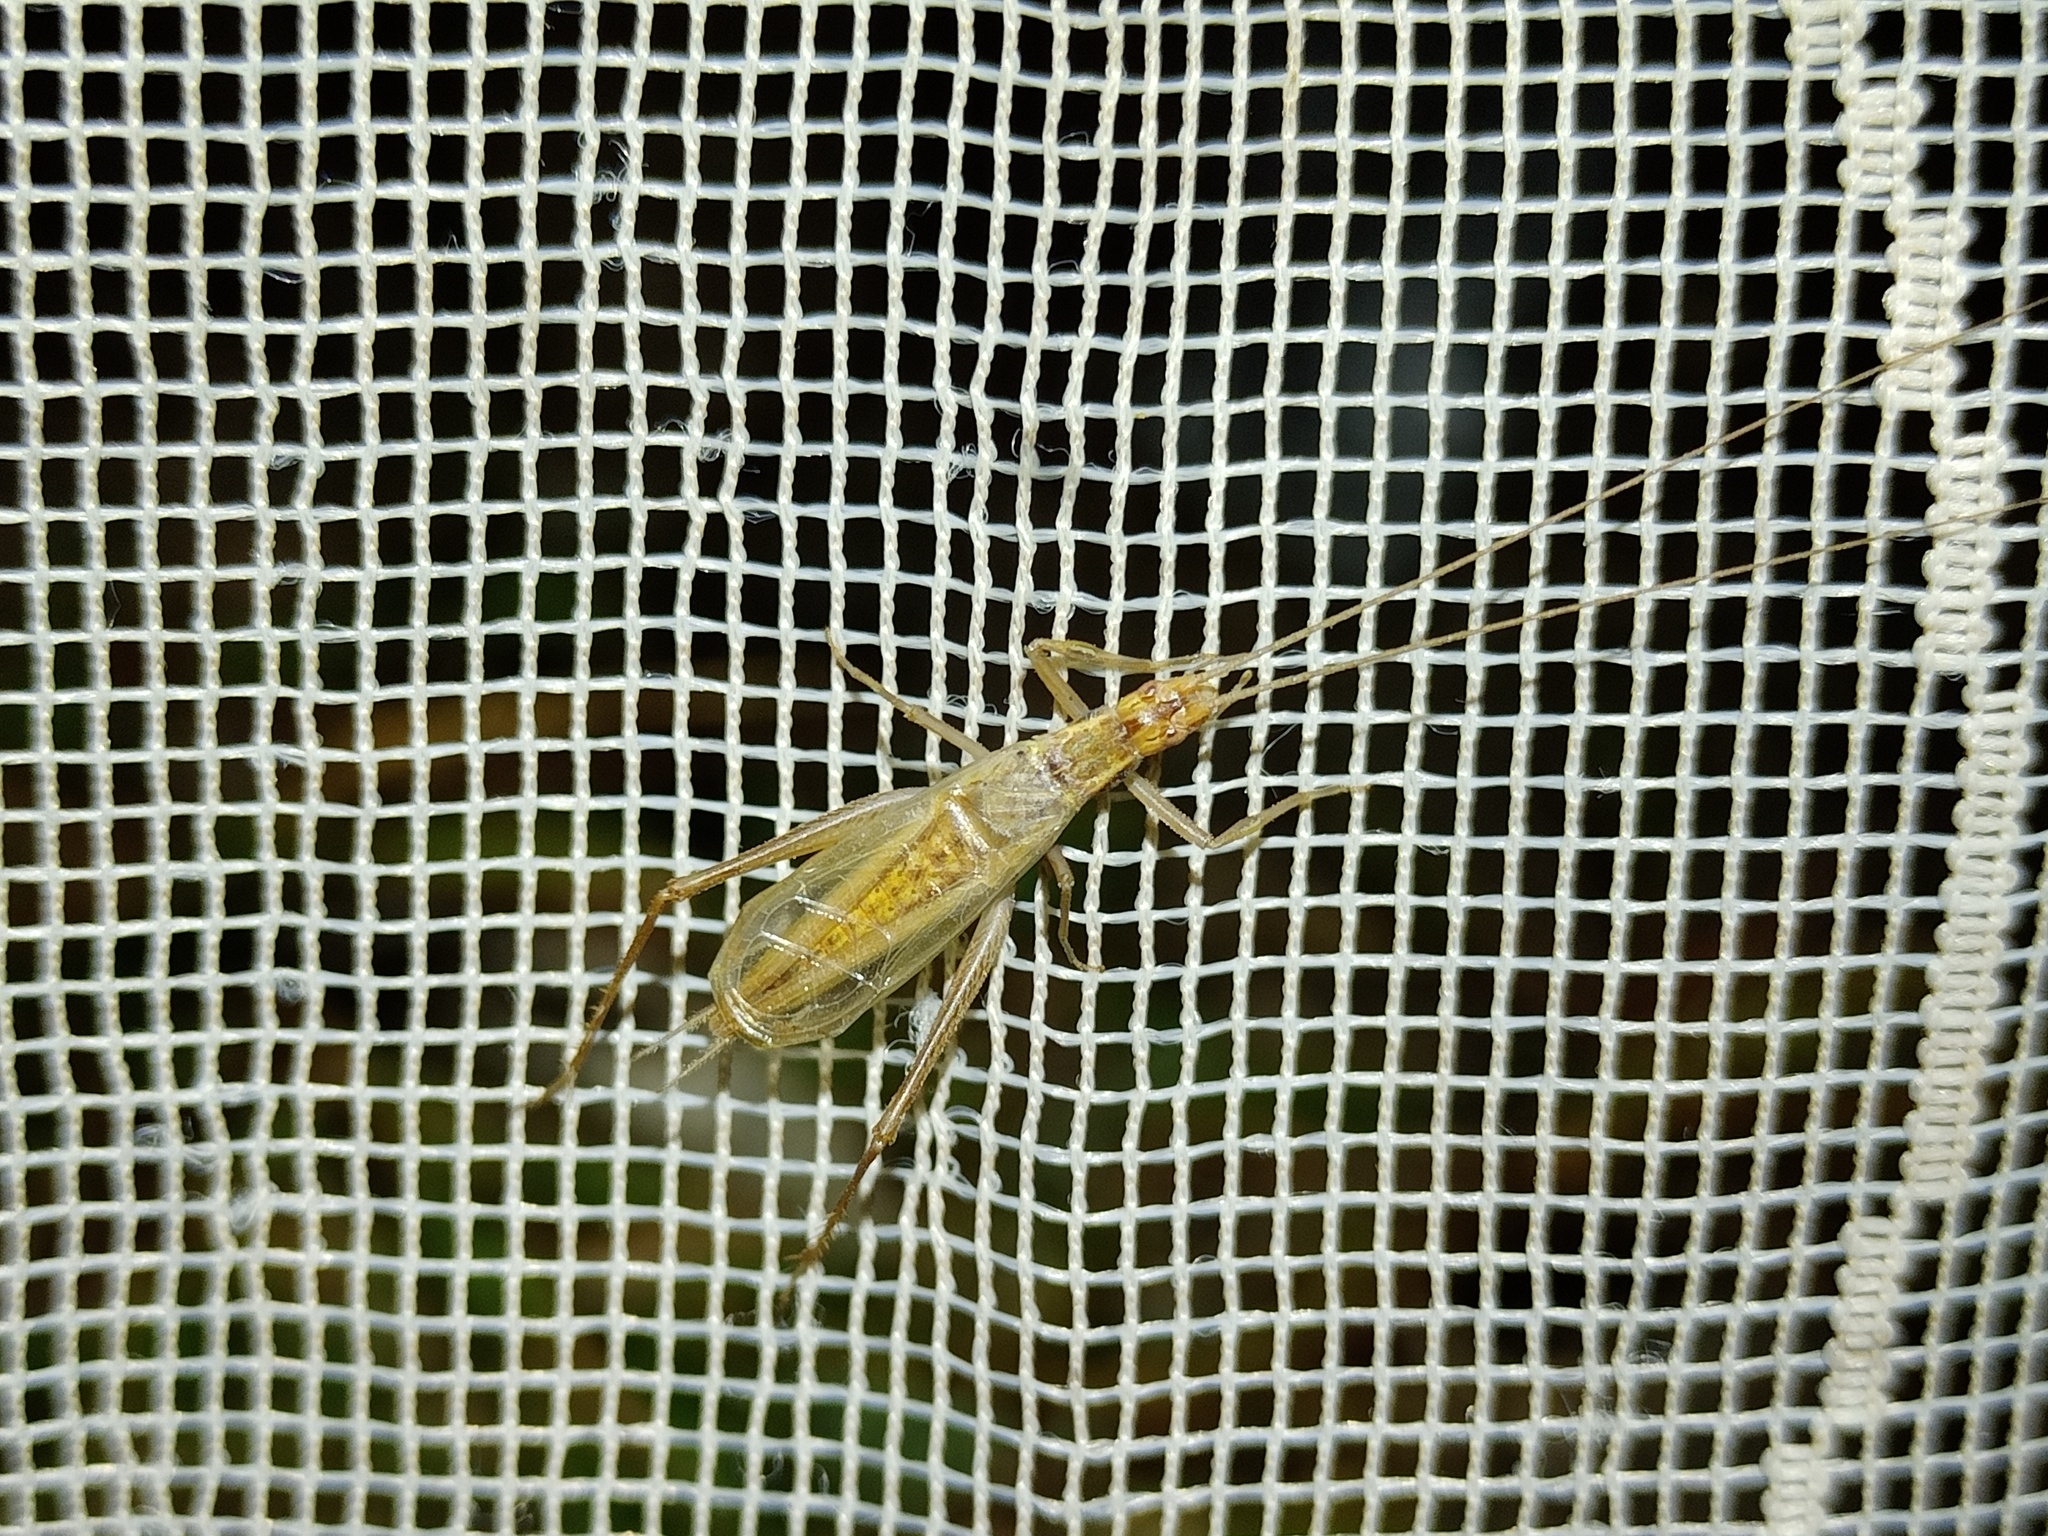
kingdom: Animalia
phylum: Arthropoda
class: Insecta
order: Orthoptera
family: Gryllidae
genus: Oecanthus
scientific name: Oecanthus pellucens
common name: Tree-cricket
